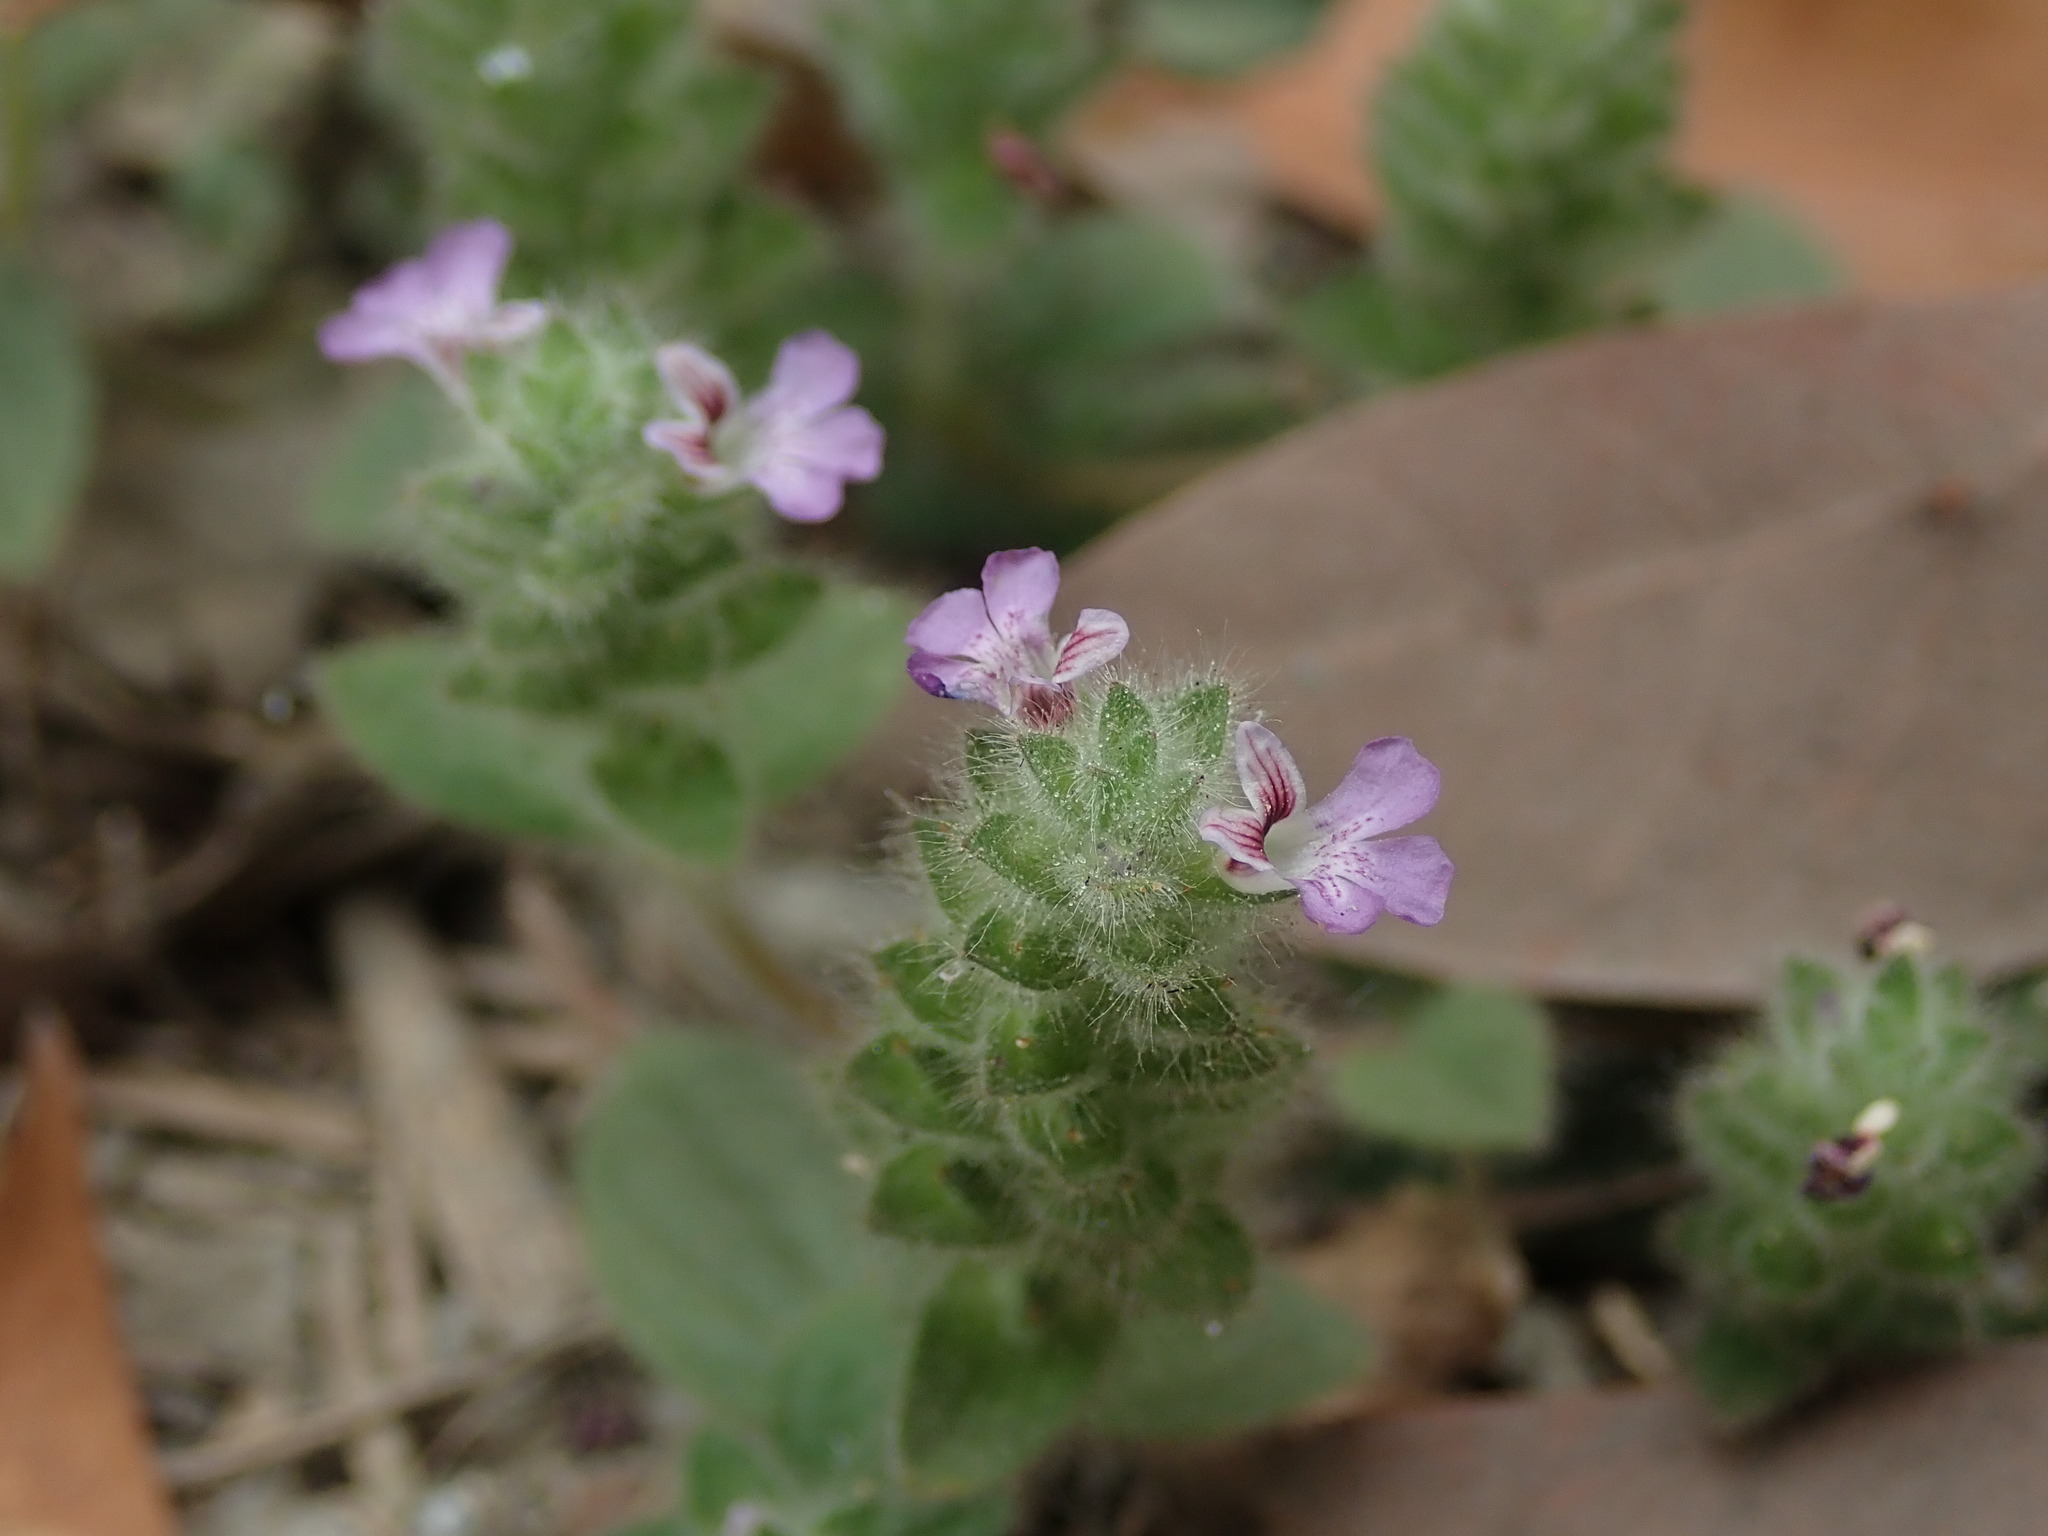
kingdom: Plantae
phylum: Tracheophyta
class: Magnoliopsida
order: Lamiales
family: Acanthaceae
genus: Nelsonia
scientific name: Nelsonia canescens
